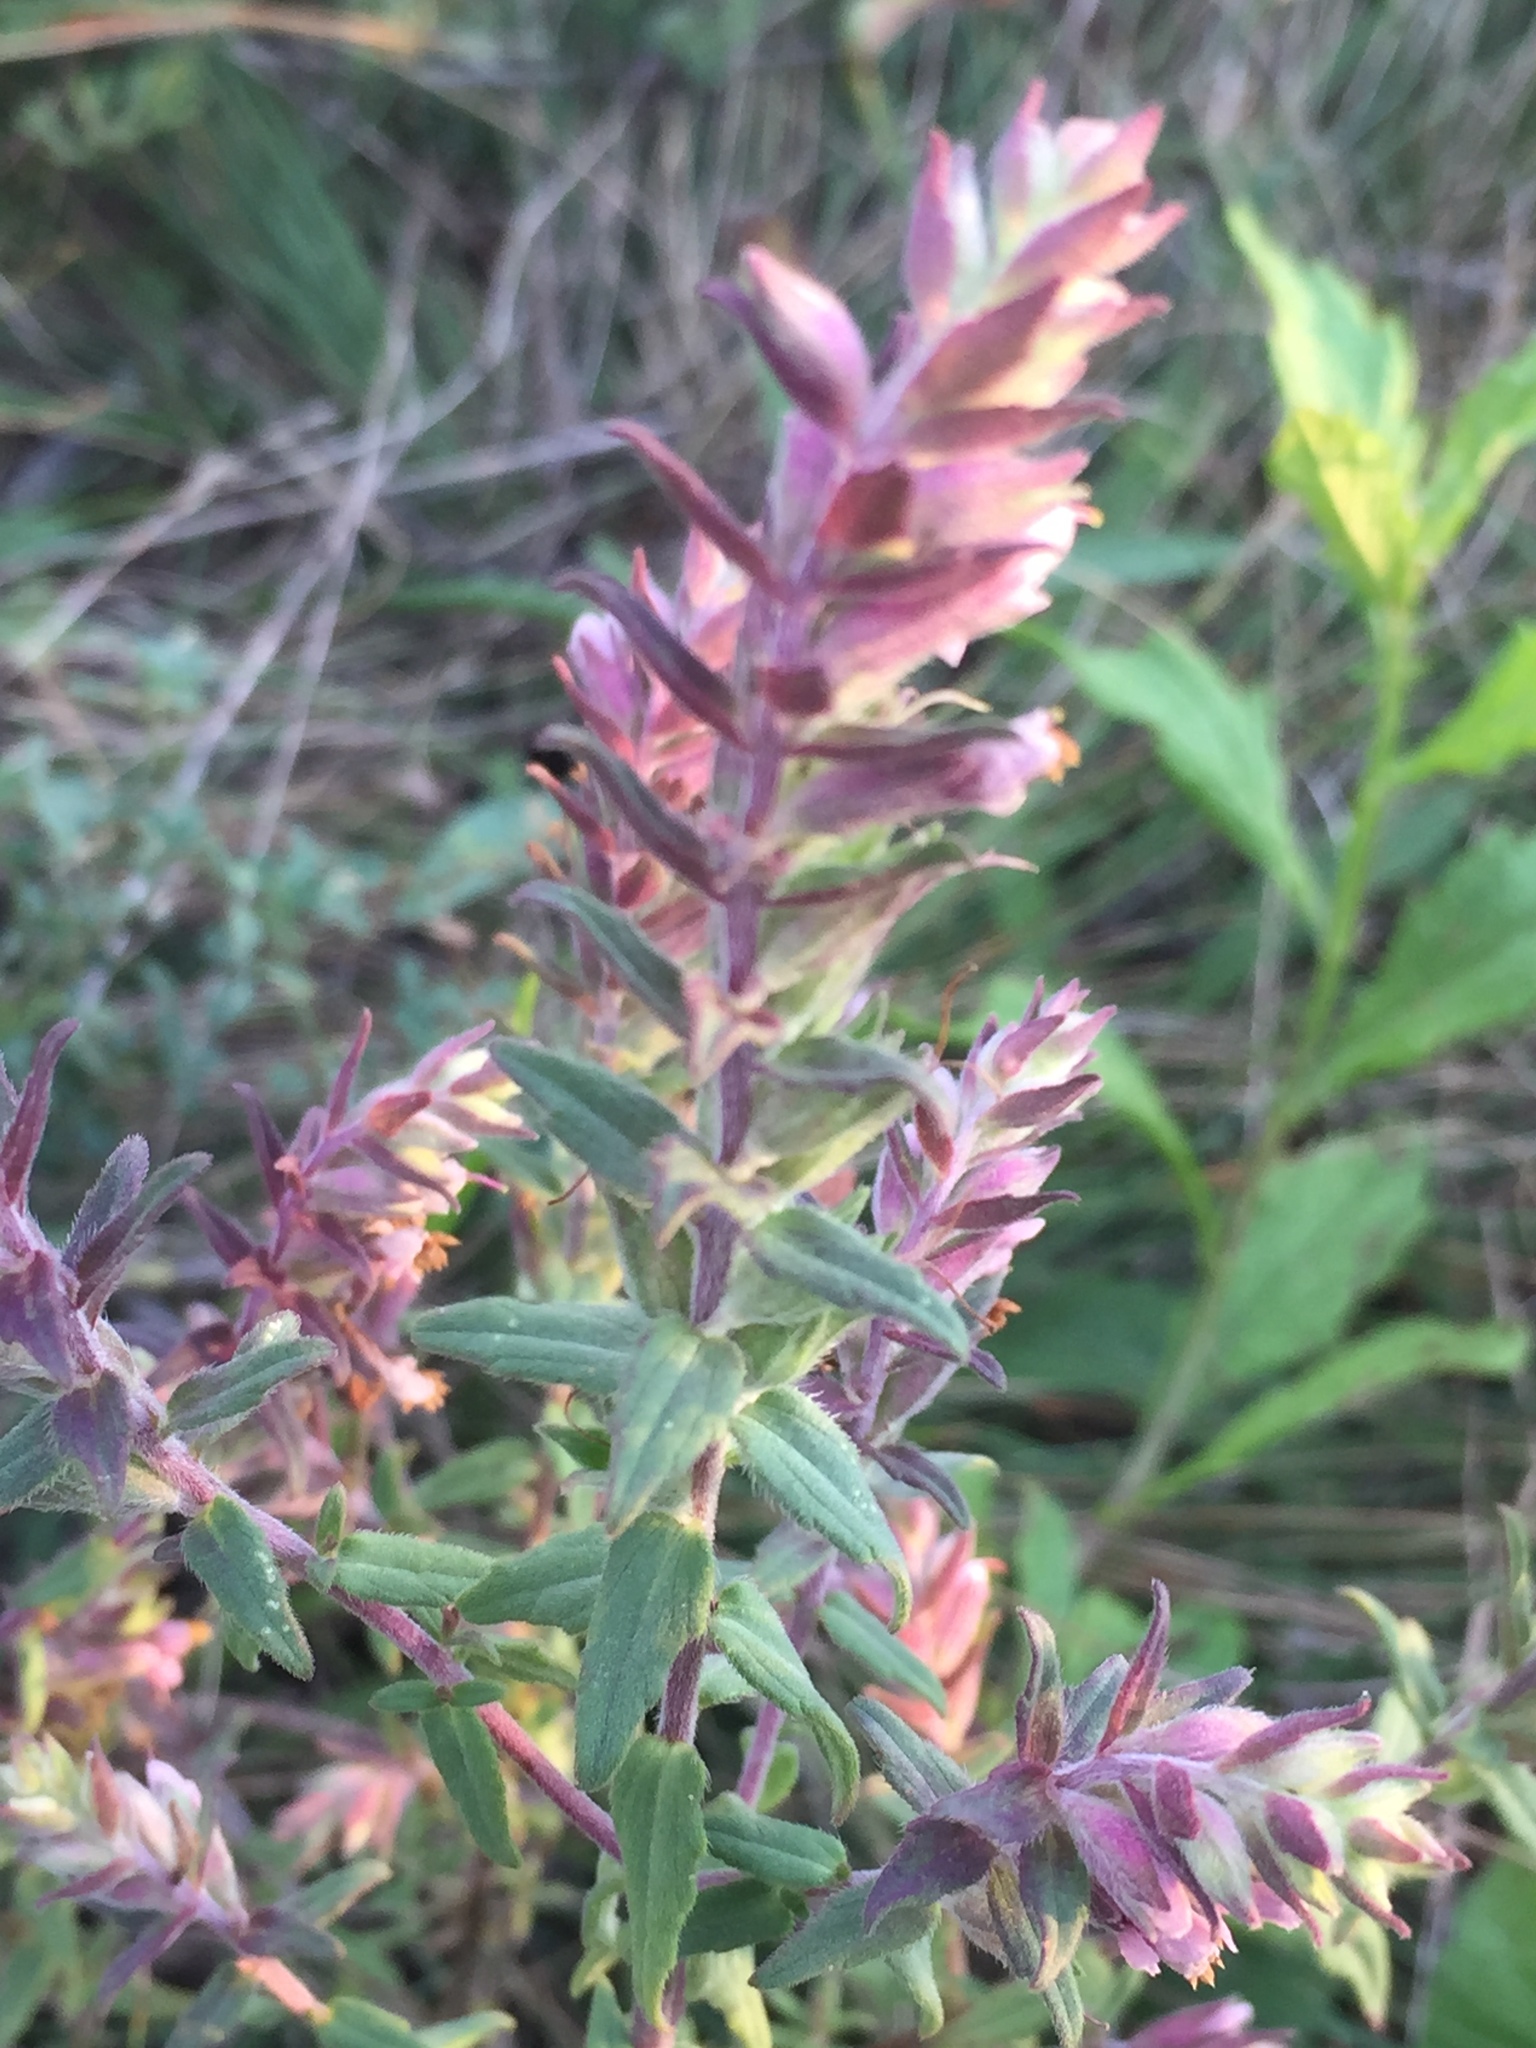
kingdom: Plantae
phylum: Tracheophyta
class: Magnoliopsida
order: Lamiales
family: Orobanchaceae
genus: Odontites
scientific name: Odontites vulgaris
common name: Broomrape
